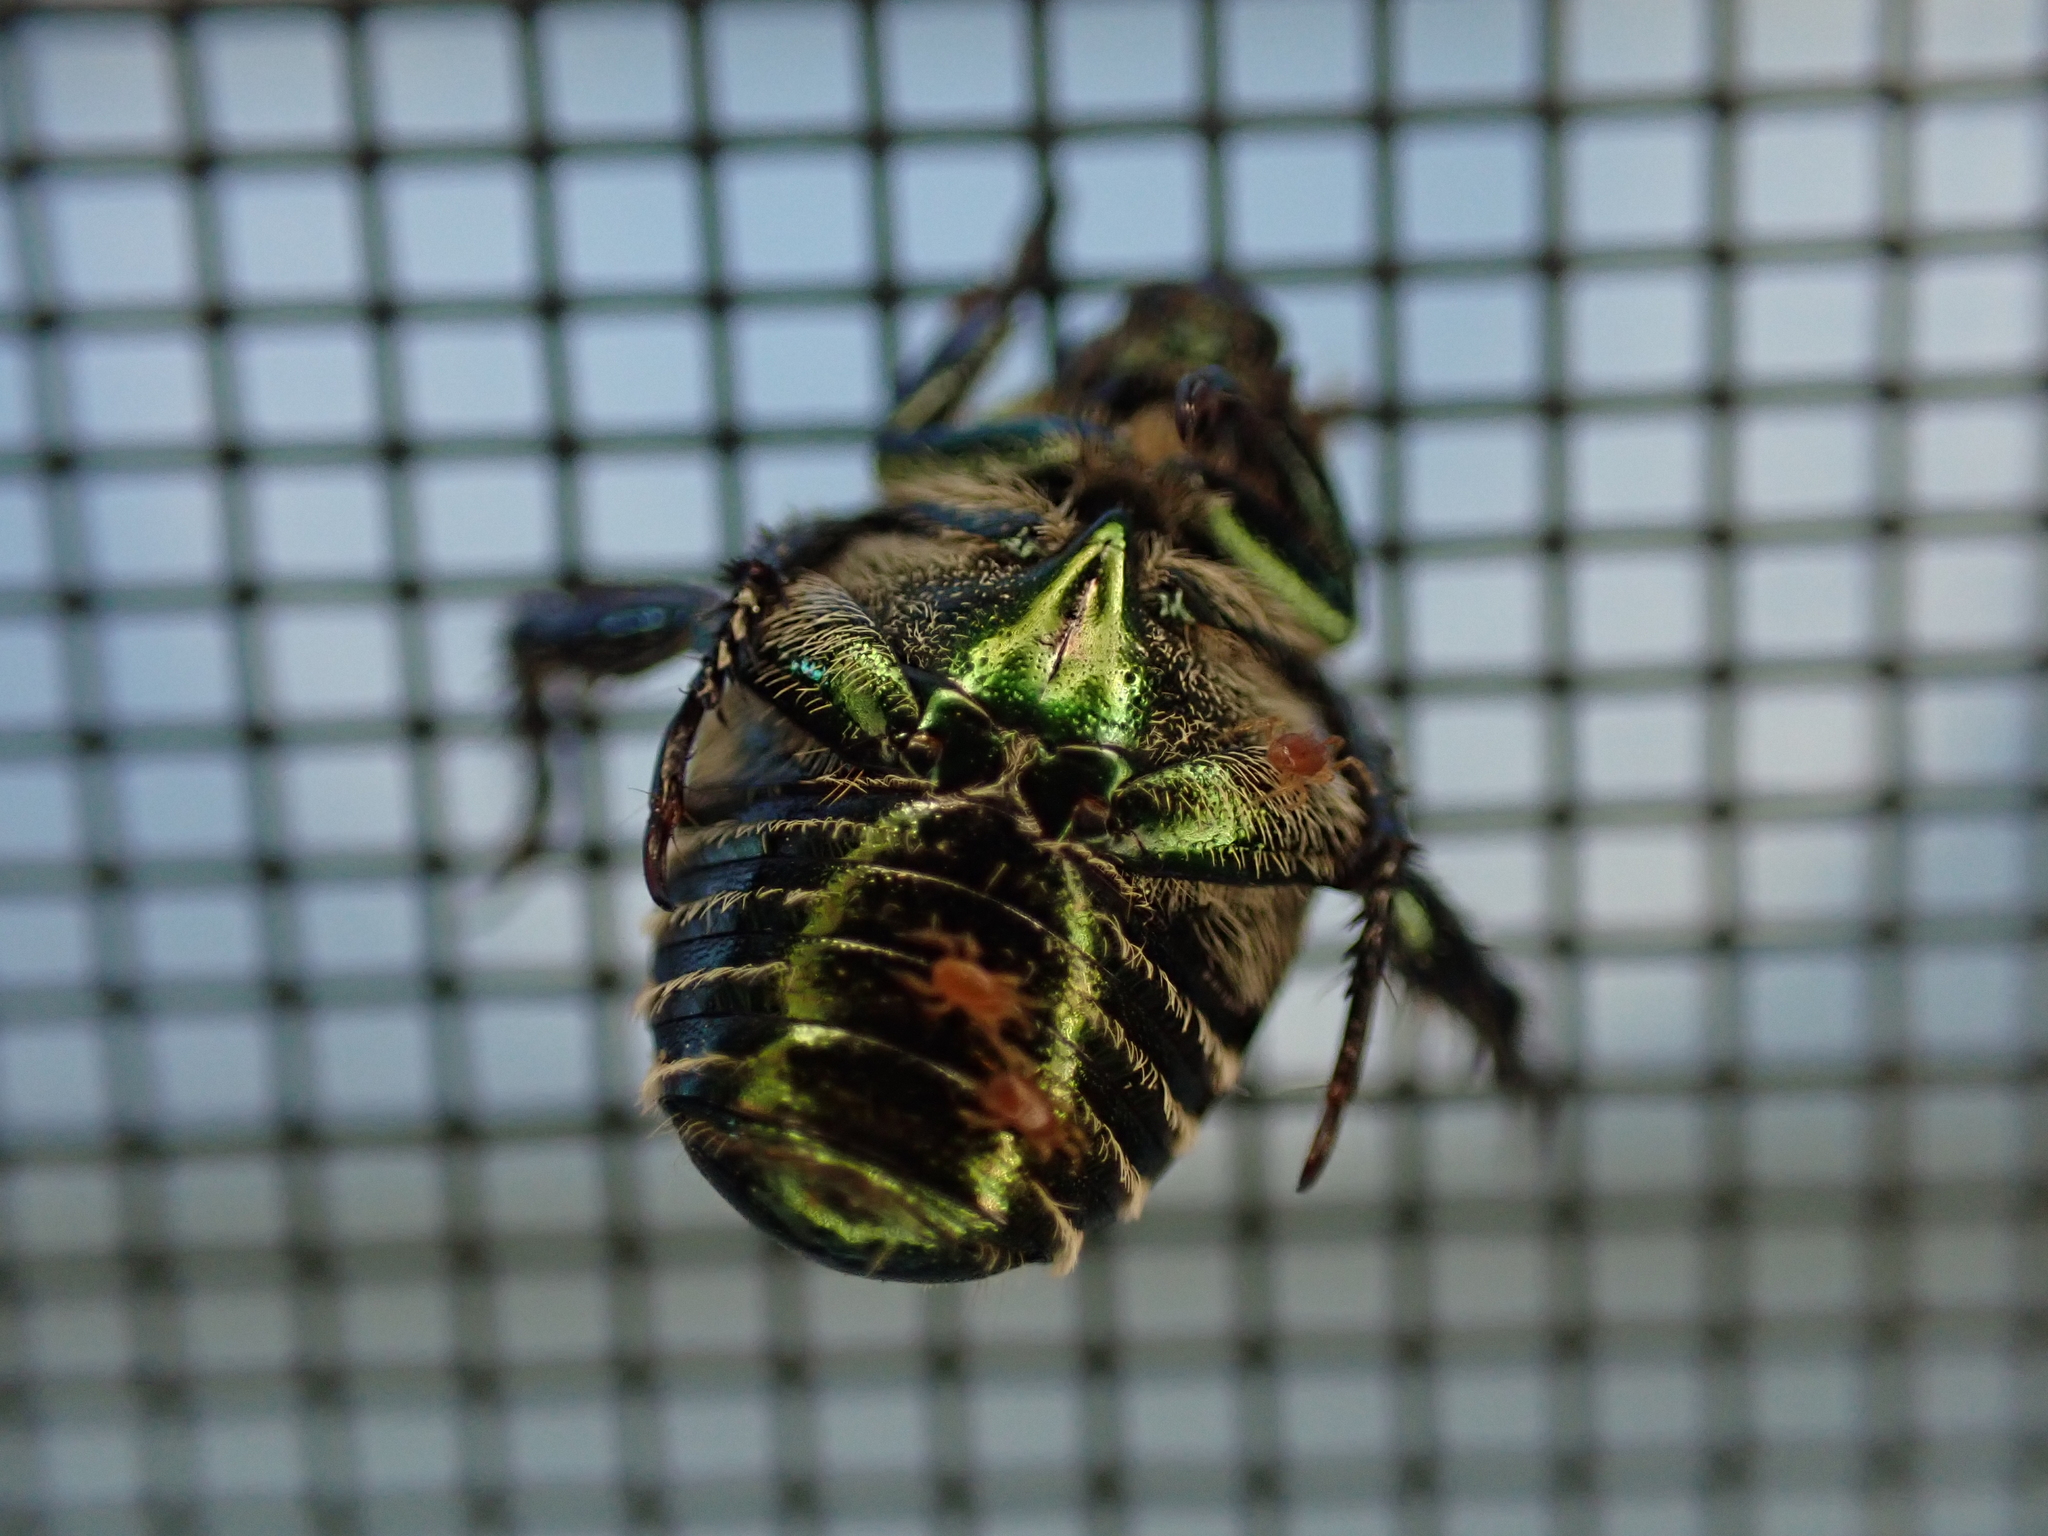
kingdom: Animalia
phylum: Arthropoda
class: Insecta
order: Coleoptera
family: Scarabaeidae
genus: Popillia
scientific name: Popillia japonica
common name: Japanese beetle
